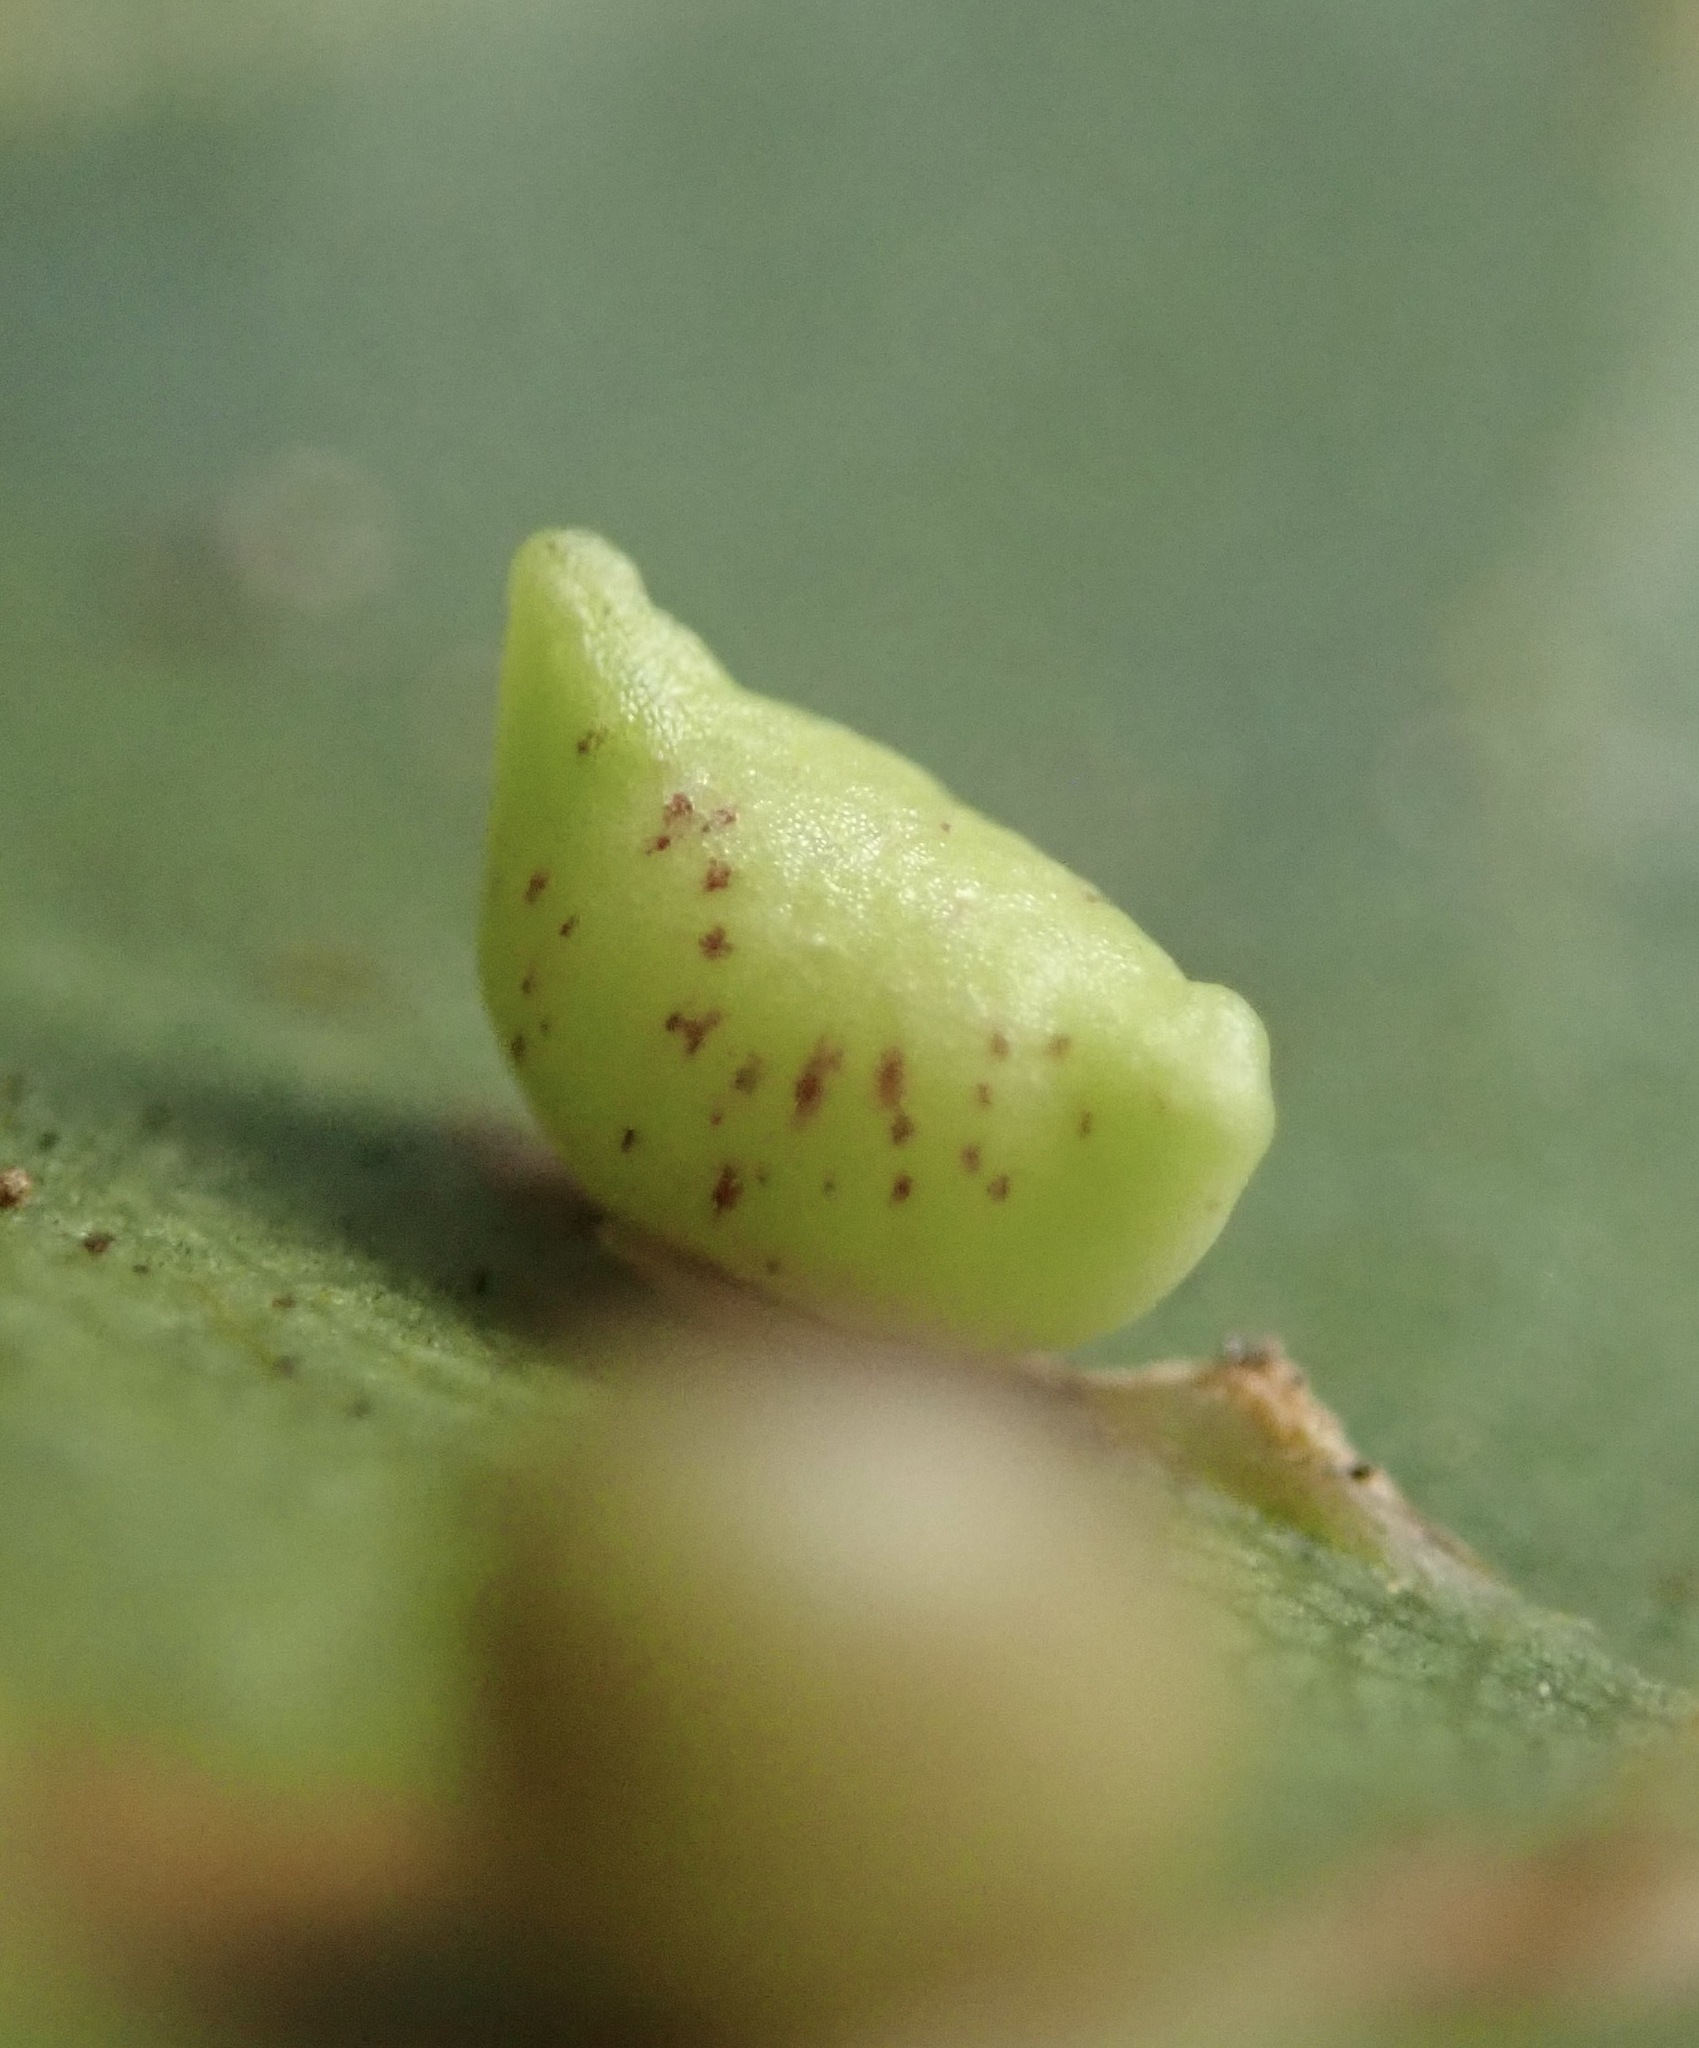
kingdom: Animalia
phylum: Arthropoda
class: Insecta
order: Hymenoptera
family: Cynipidae
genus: Dryocosmus
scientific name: Dryocosmus
